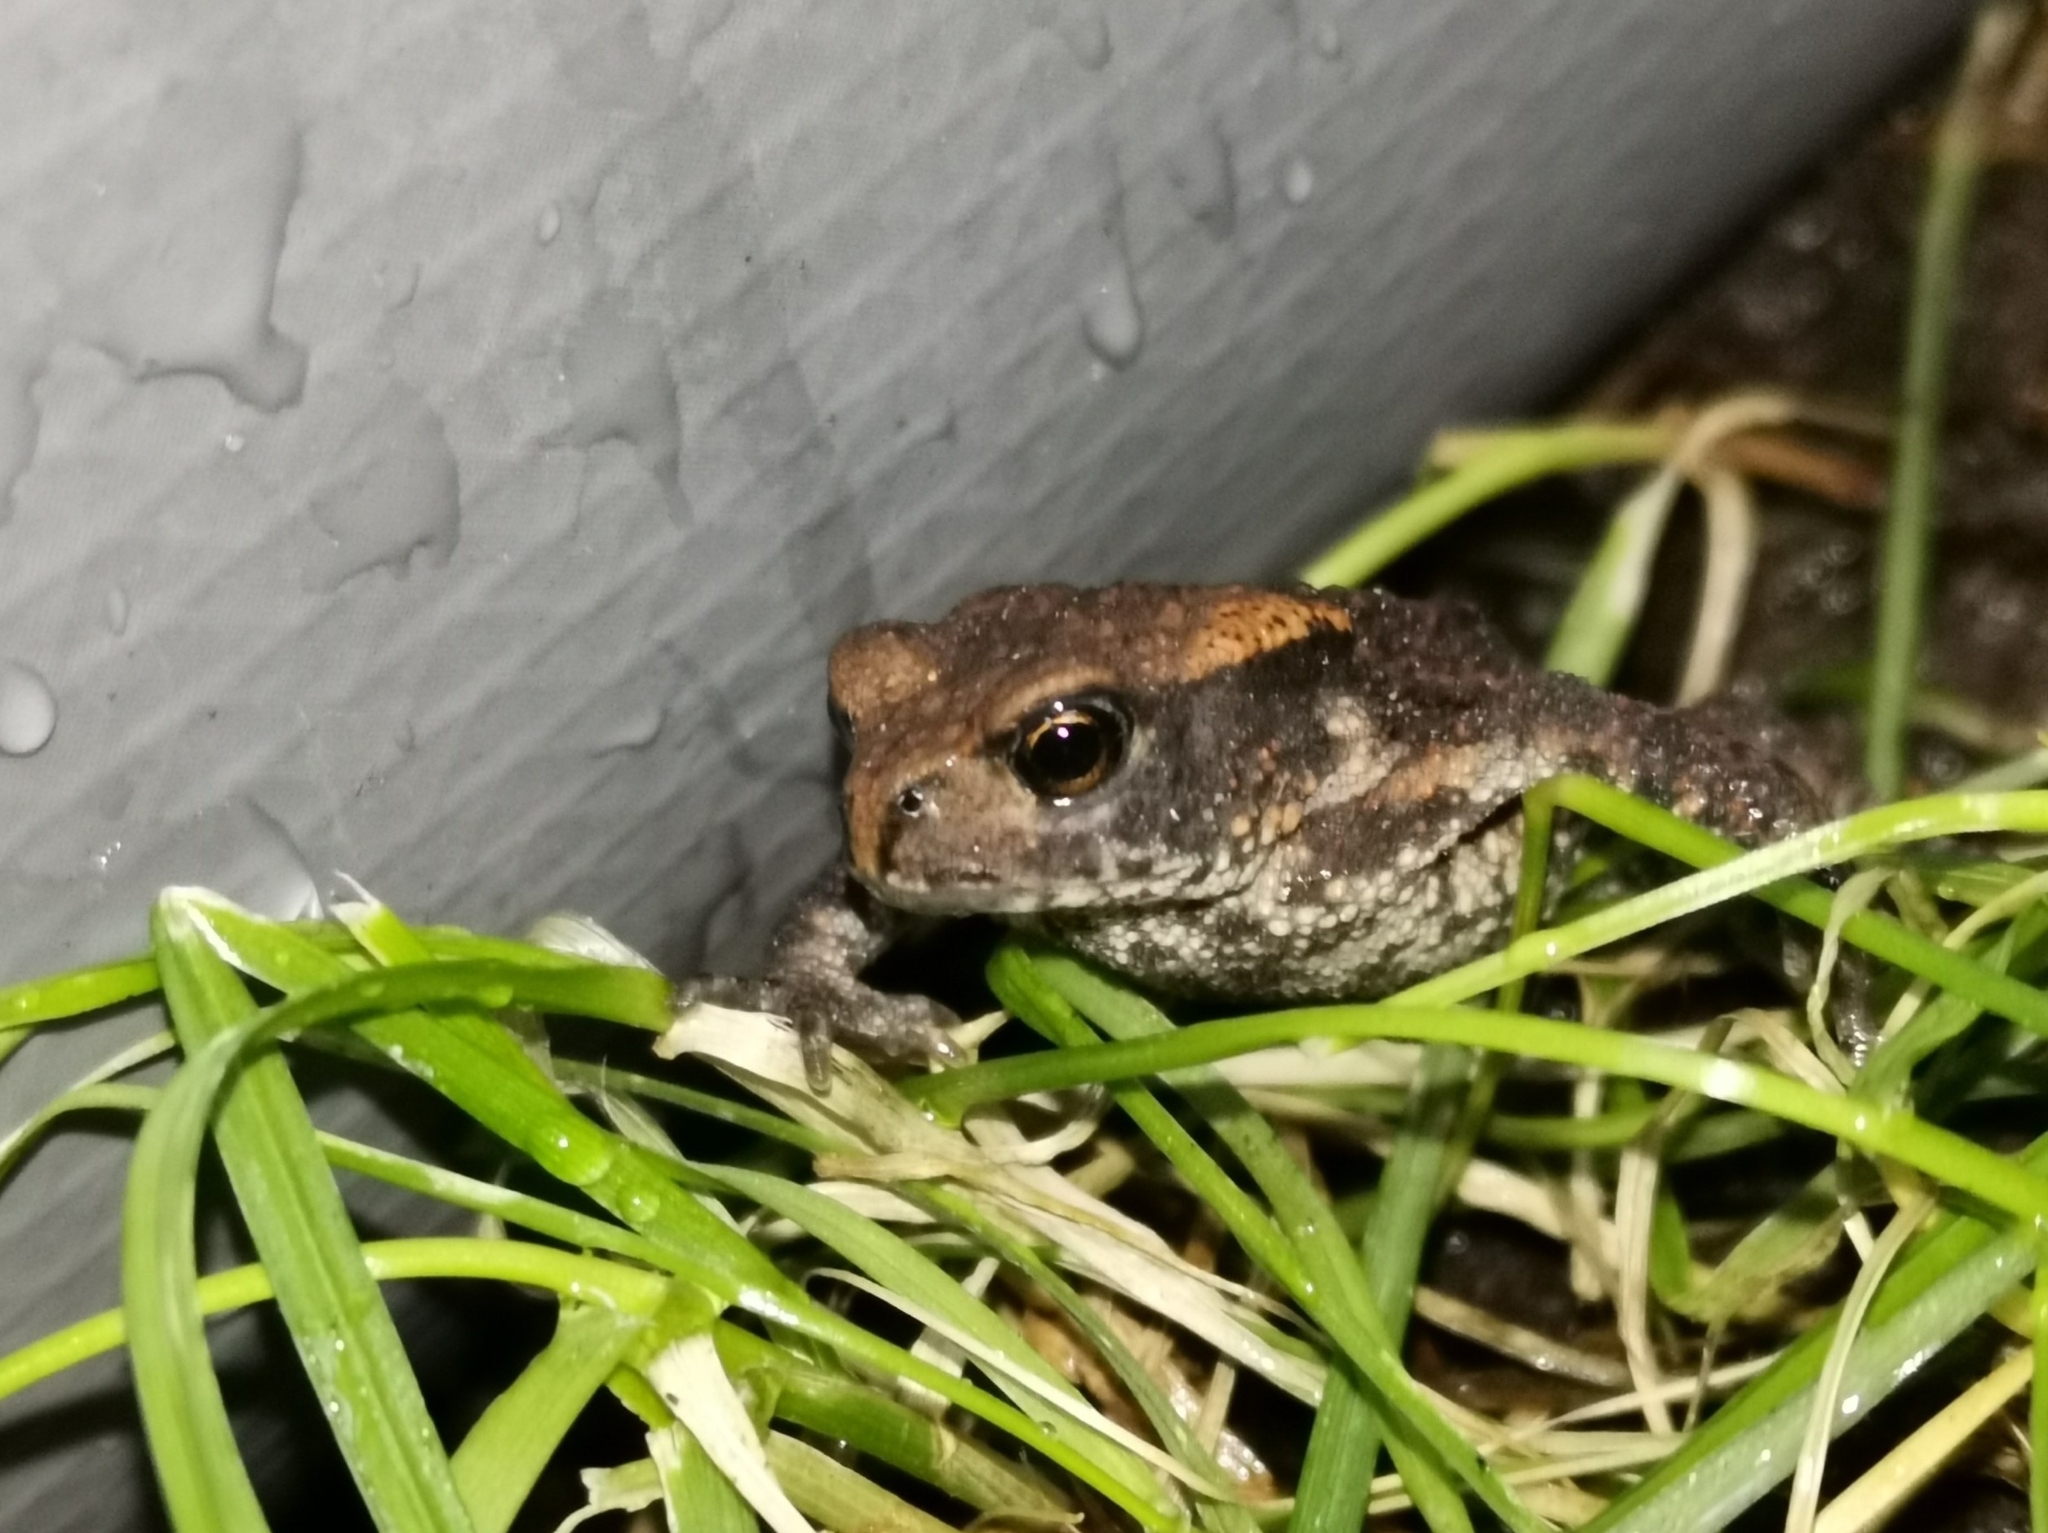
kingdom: Animalia
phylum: Chordata
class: Amphibia
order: Anura
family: Bufonidae
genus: Bufo
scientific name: Bufo bufo
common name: Common toad
